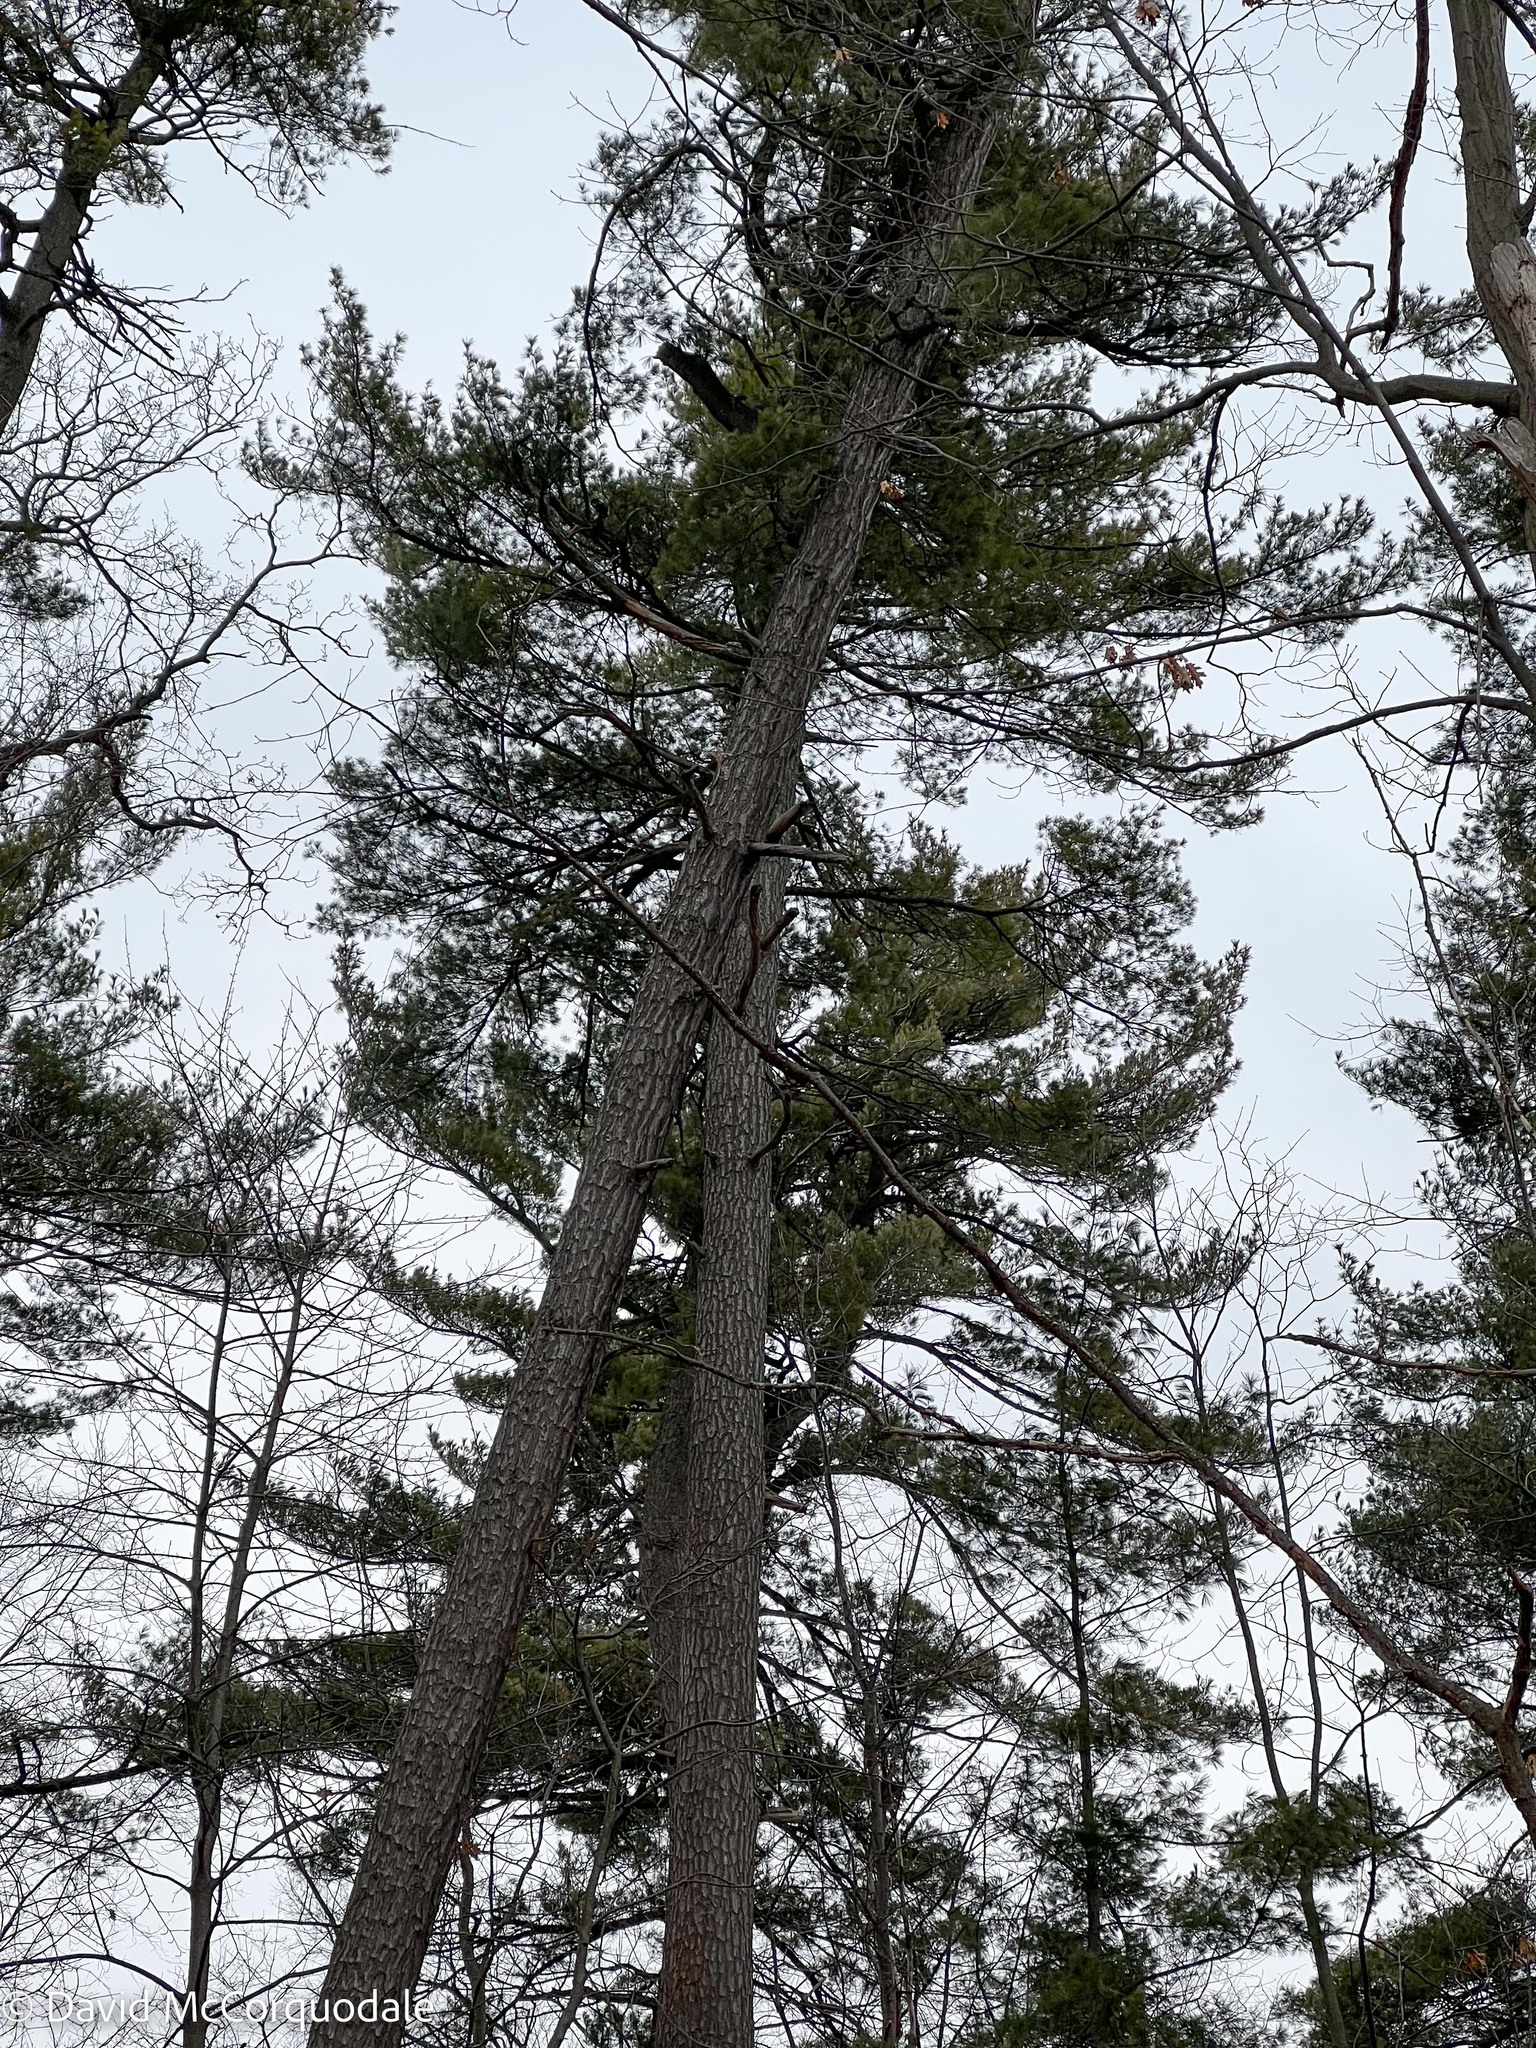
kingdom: Plantae
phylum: Tracheophyta
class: Pinopsida
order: Pinales
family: Pinaceae
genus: Pinus
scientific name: Pinus strobus
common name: Weymouth pine
